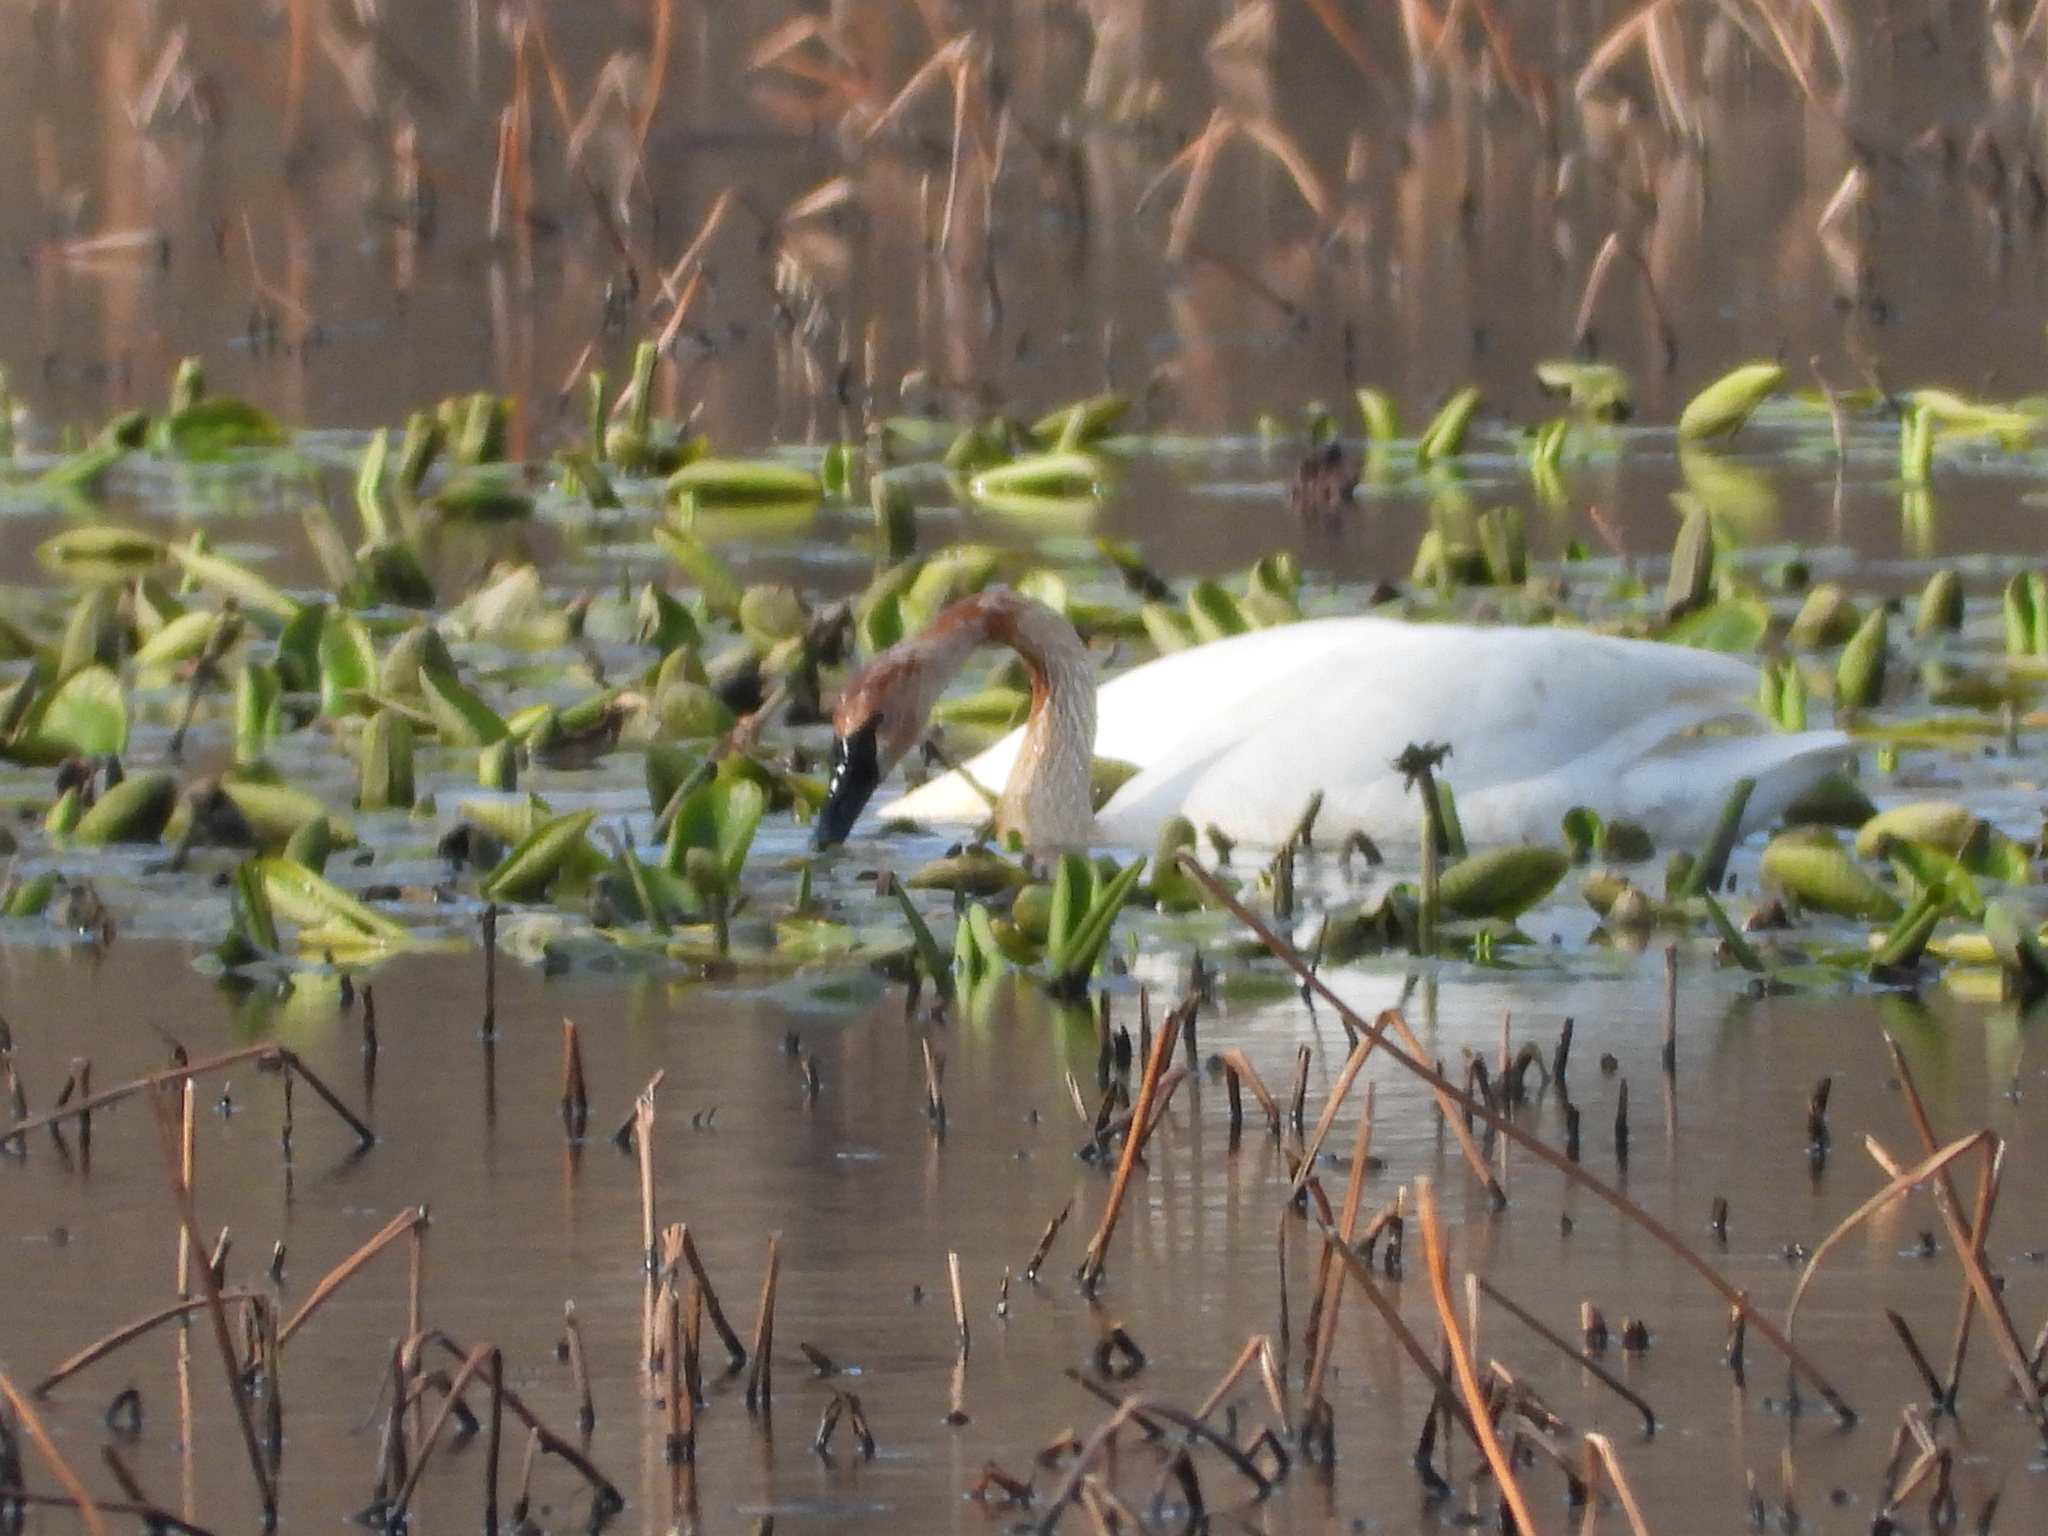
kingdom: Animalia
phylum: Chordata
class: Aves
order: Anseriformes
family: Anatidae
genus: Cygnus
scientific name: Cygnus buccinator
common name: Trumpeter swan
